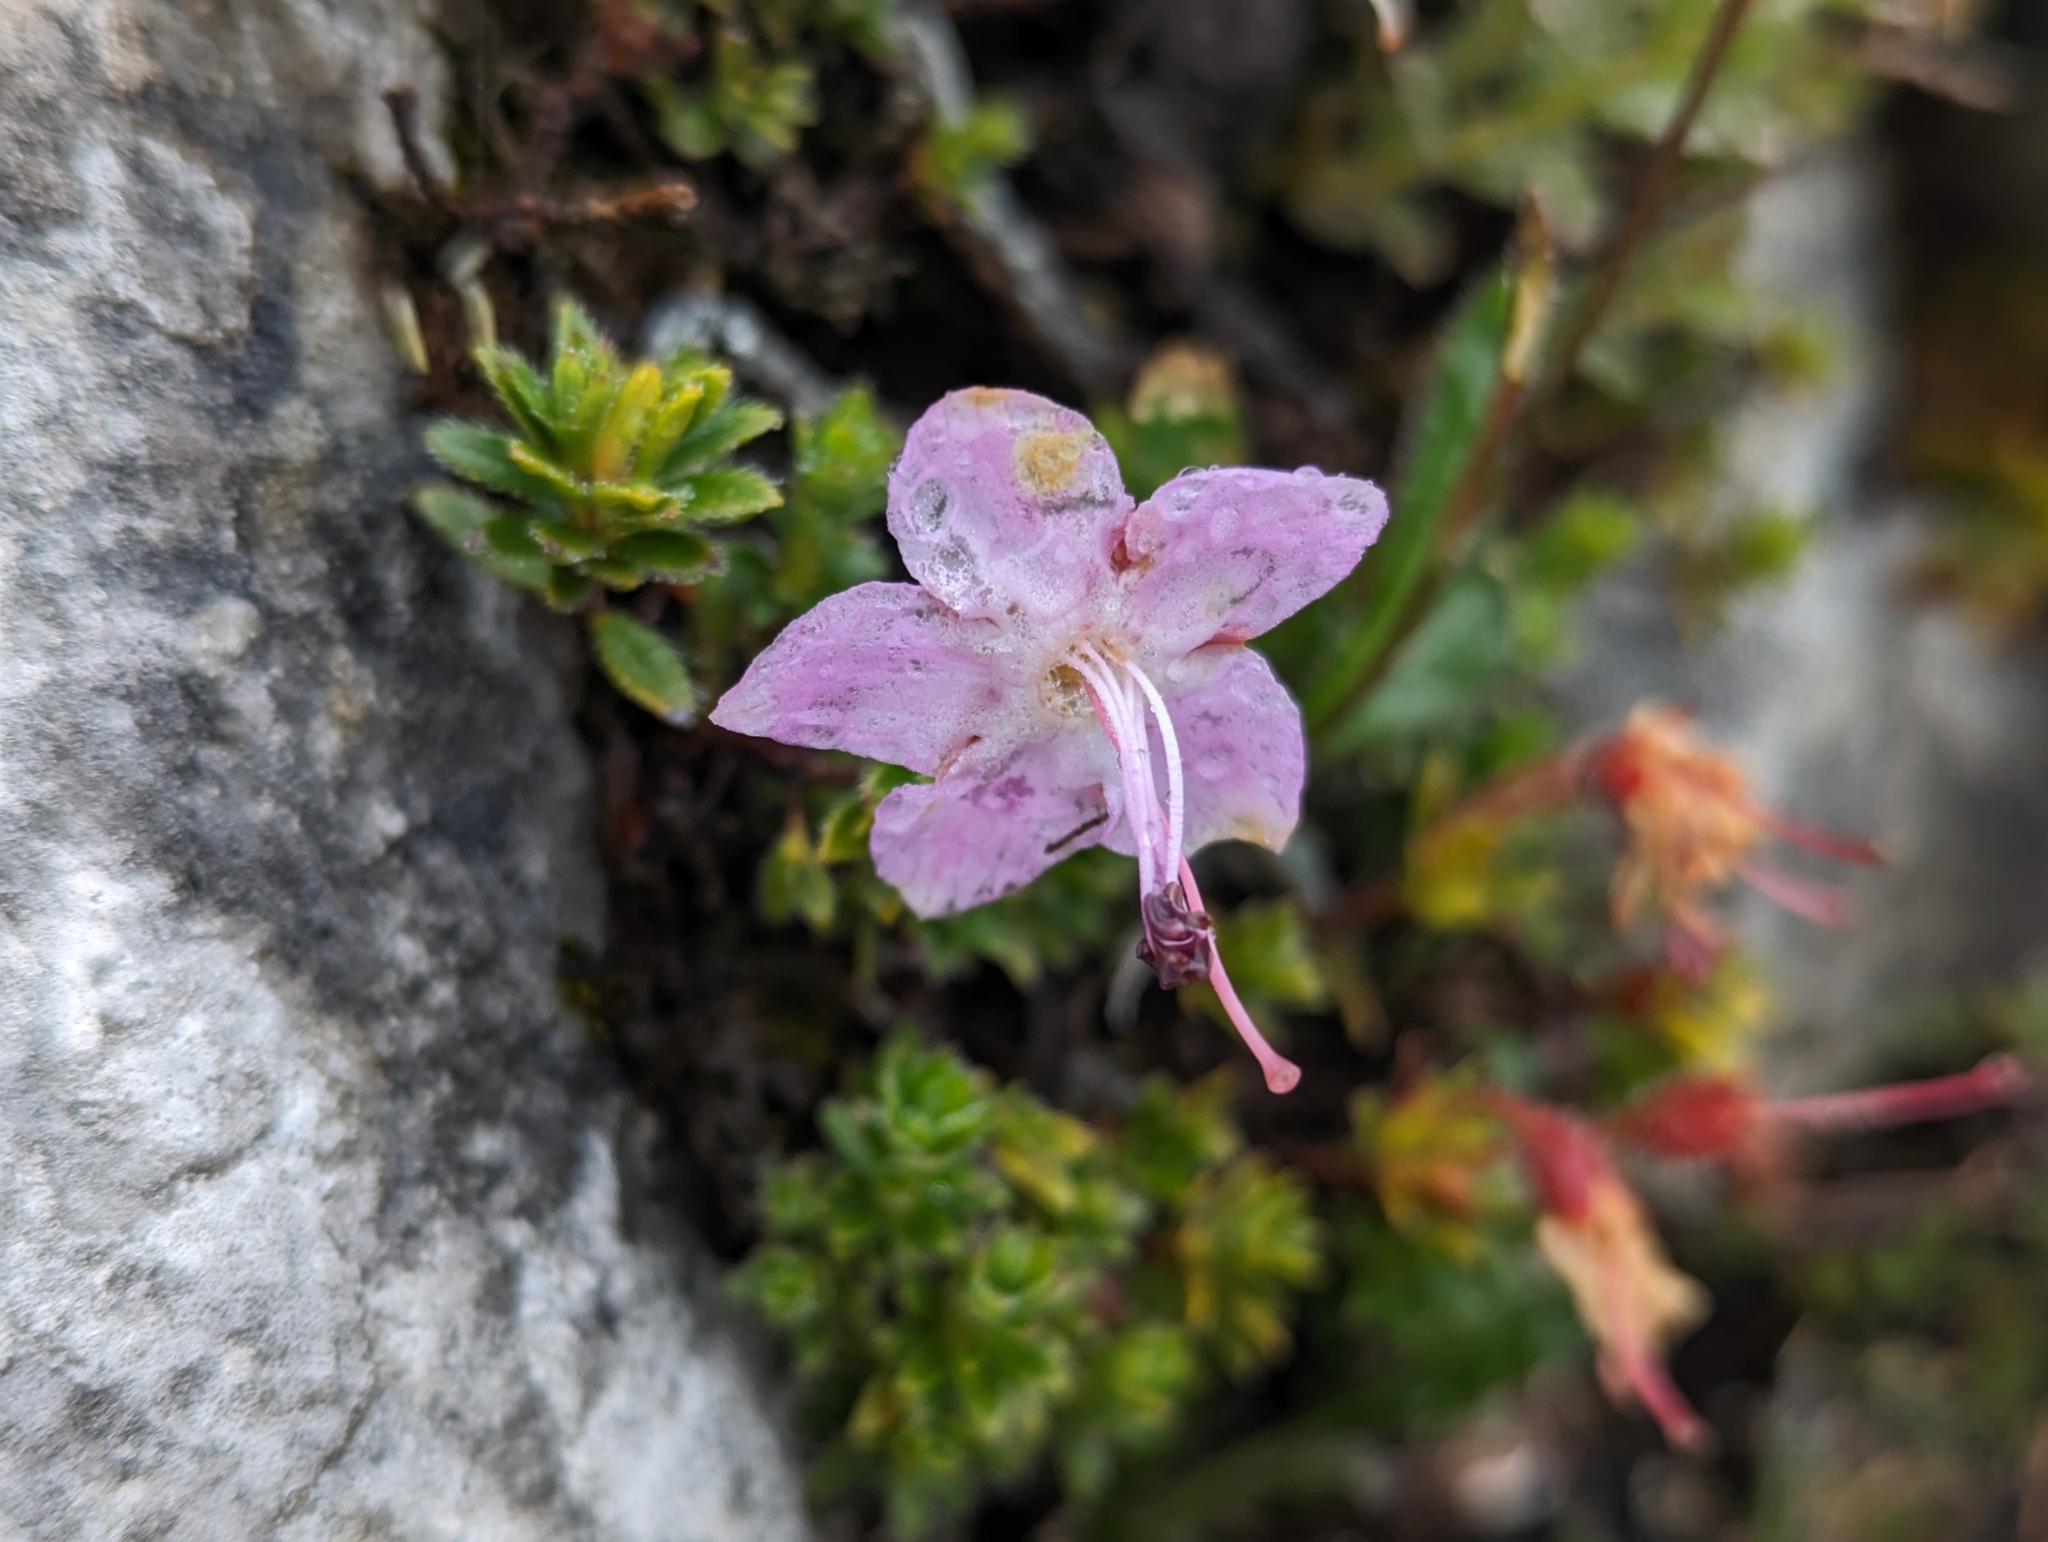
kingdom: Plantae
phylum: Tracheophyta
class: Magnoliopsida
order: Ericales
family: Ericaceae
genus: Rhodothamnus
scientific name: Rhodothamnus chamaecistus
